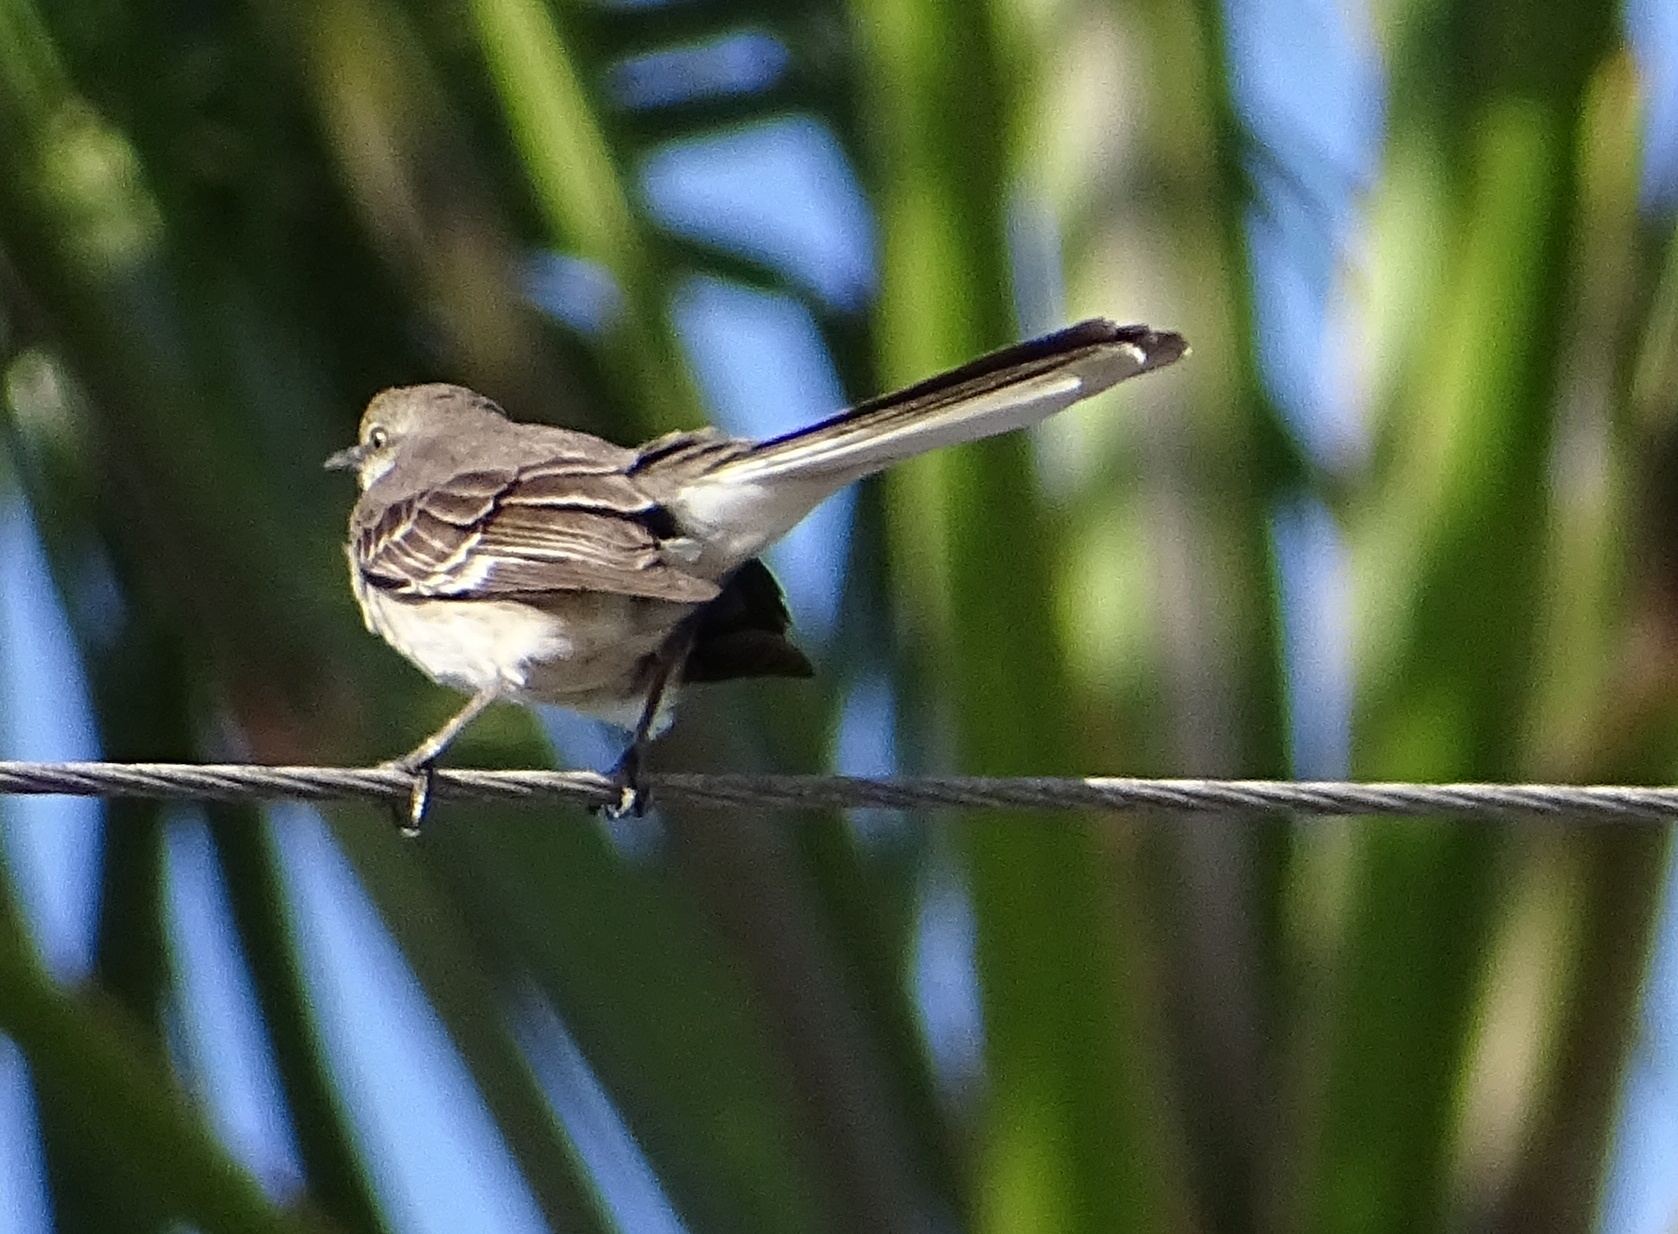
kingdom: Animalia
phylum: Chordata
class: Aves
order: Passeriformes
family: Mimidae
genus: Mimus
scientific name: Mimus polyglottos
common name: Northern mockingbird
